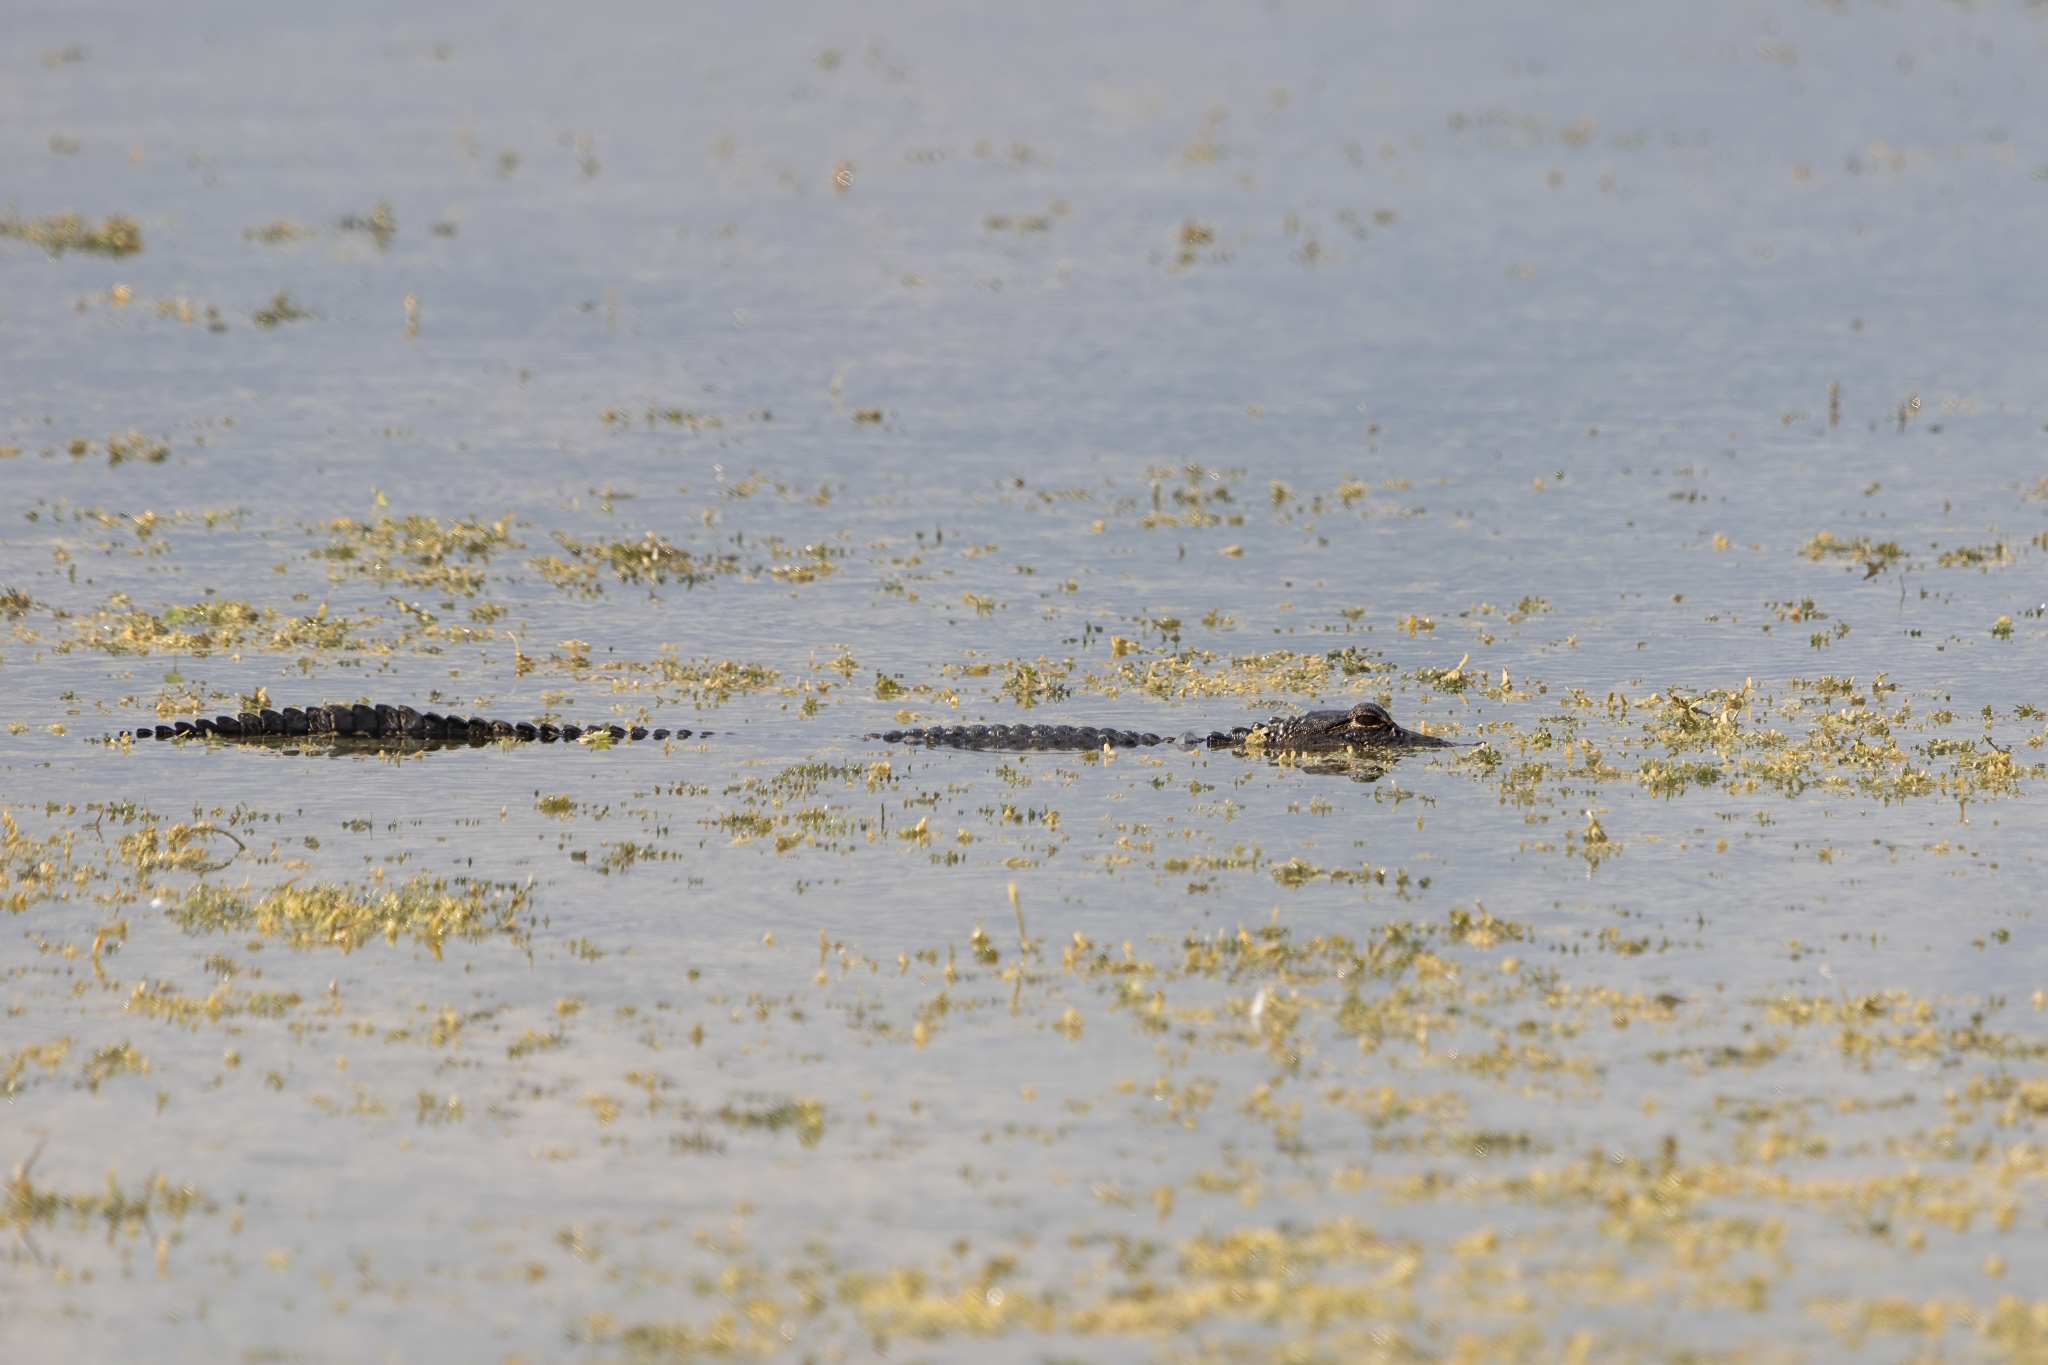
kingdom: Animalia
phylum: Chordata
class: Crocodylia
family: Alligatoridae
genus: Alligator
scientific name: Alligator mississippiensis
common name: American alligator
